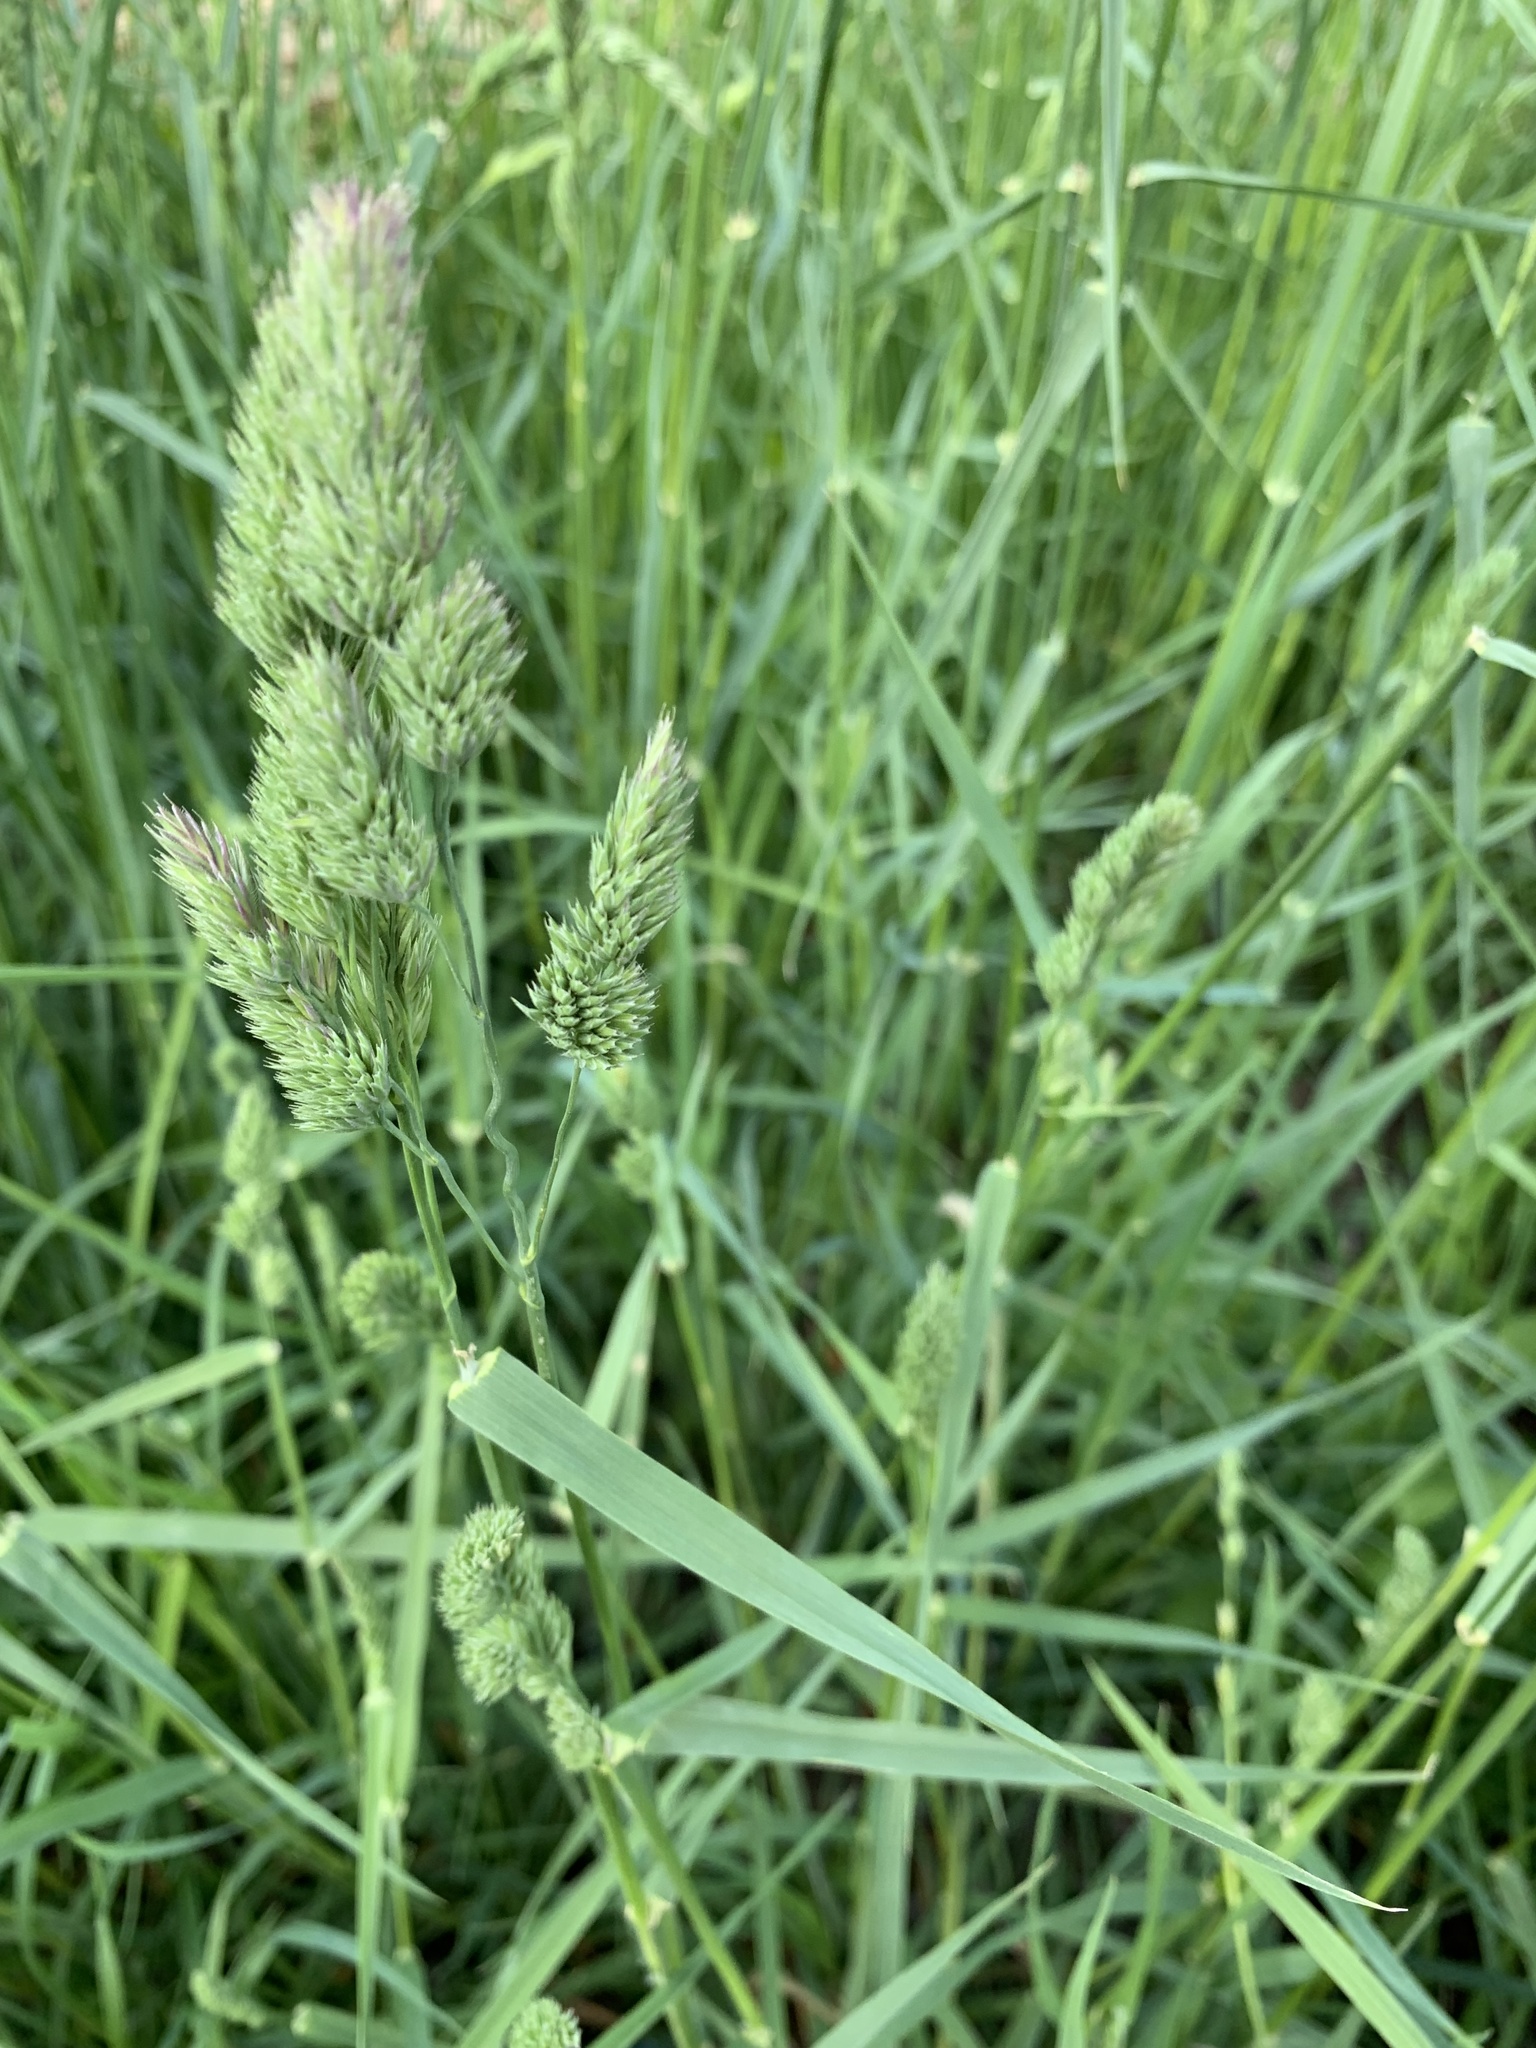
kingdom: Plantae
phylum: Tracheophyta
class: Liliopsida
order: Poales
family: Poaceae
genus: Dactylis
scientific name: Dactylis glomerata
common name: Orchardgrass
